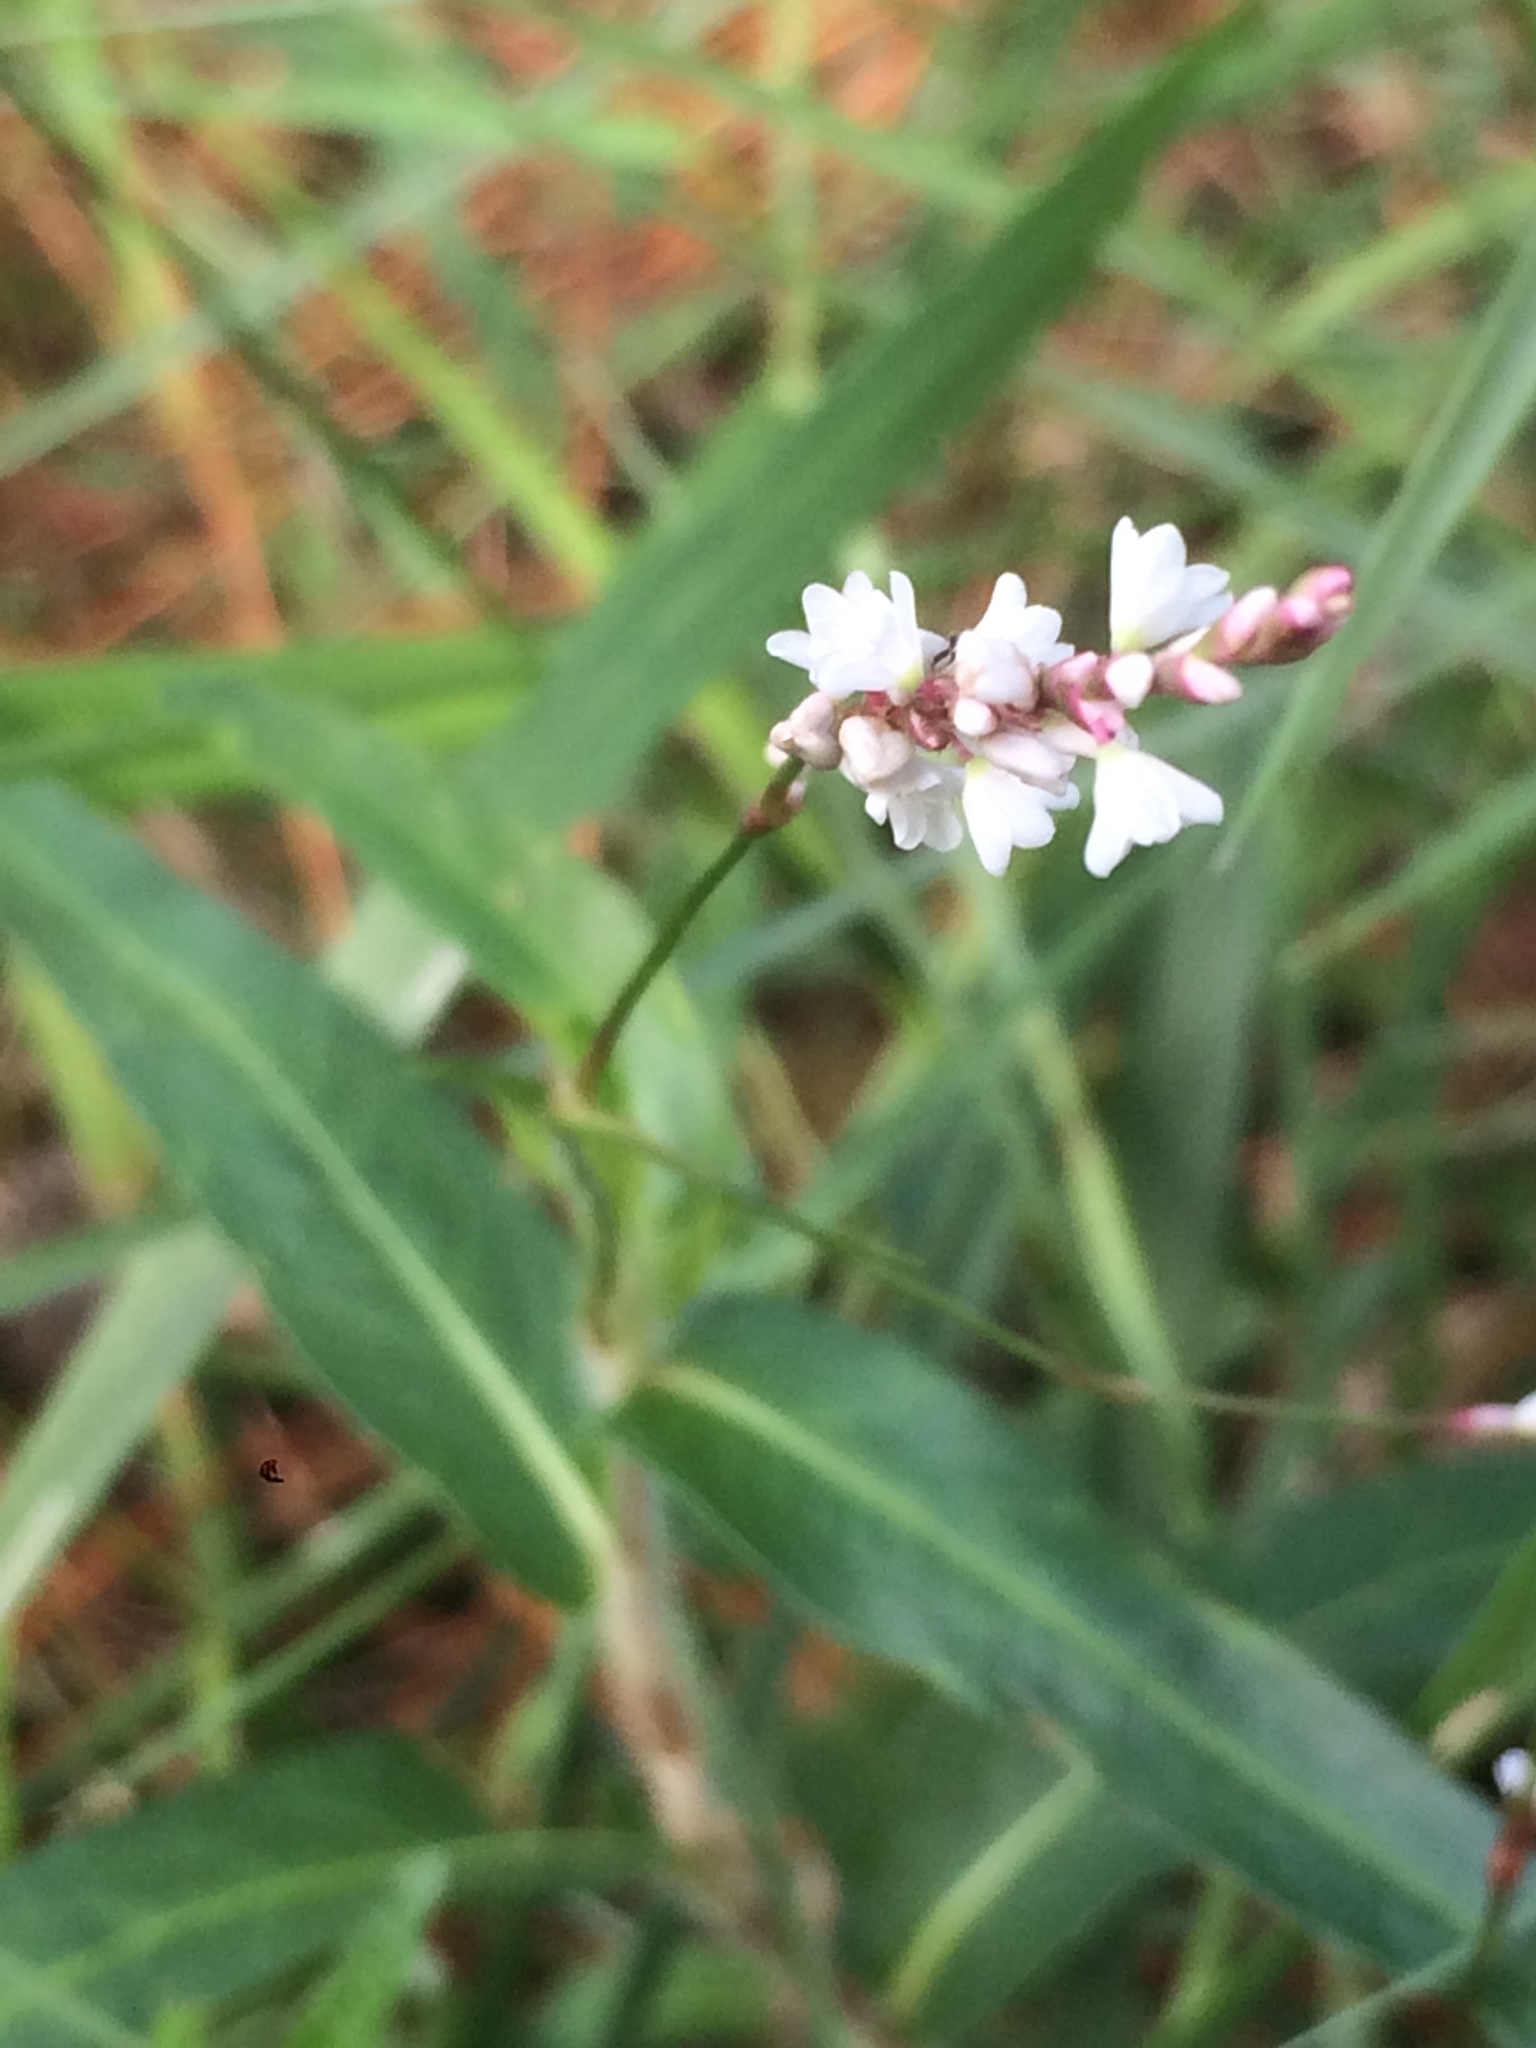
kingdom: Plantae
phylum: Tracheophyta
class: Magnoliopsida
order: Caryophyllales
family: Polygonaceae
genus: Persicaria
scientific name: Persicaria hirsuta
